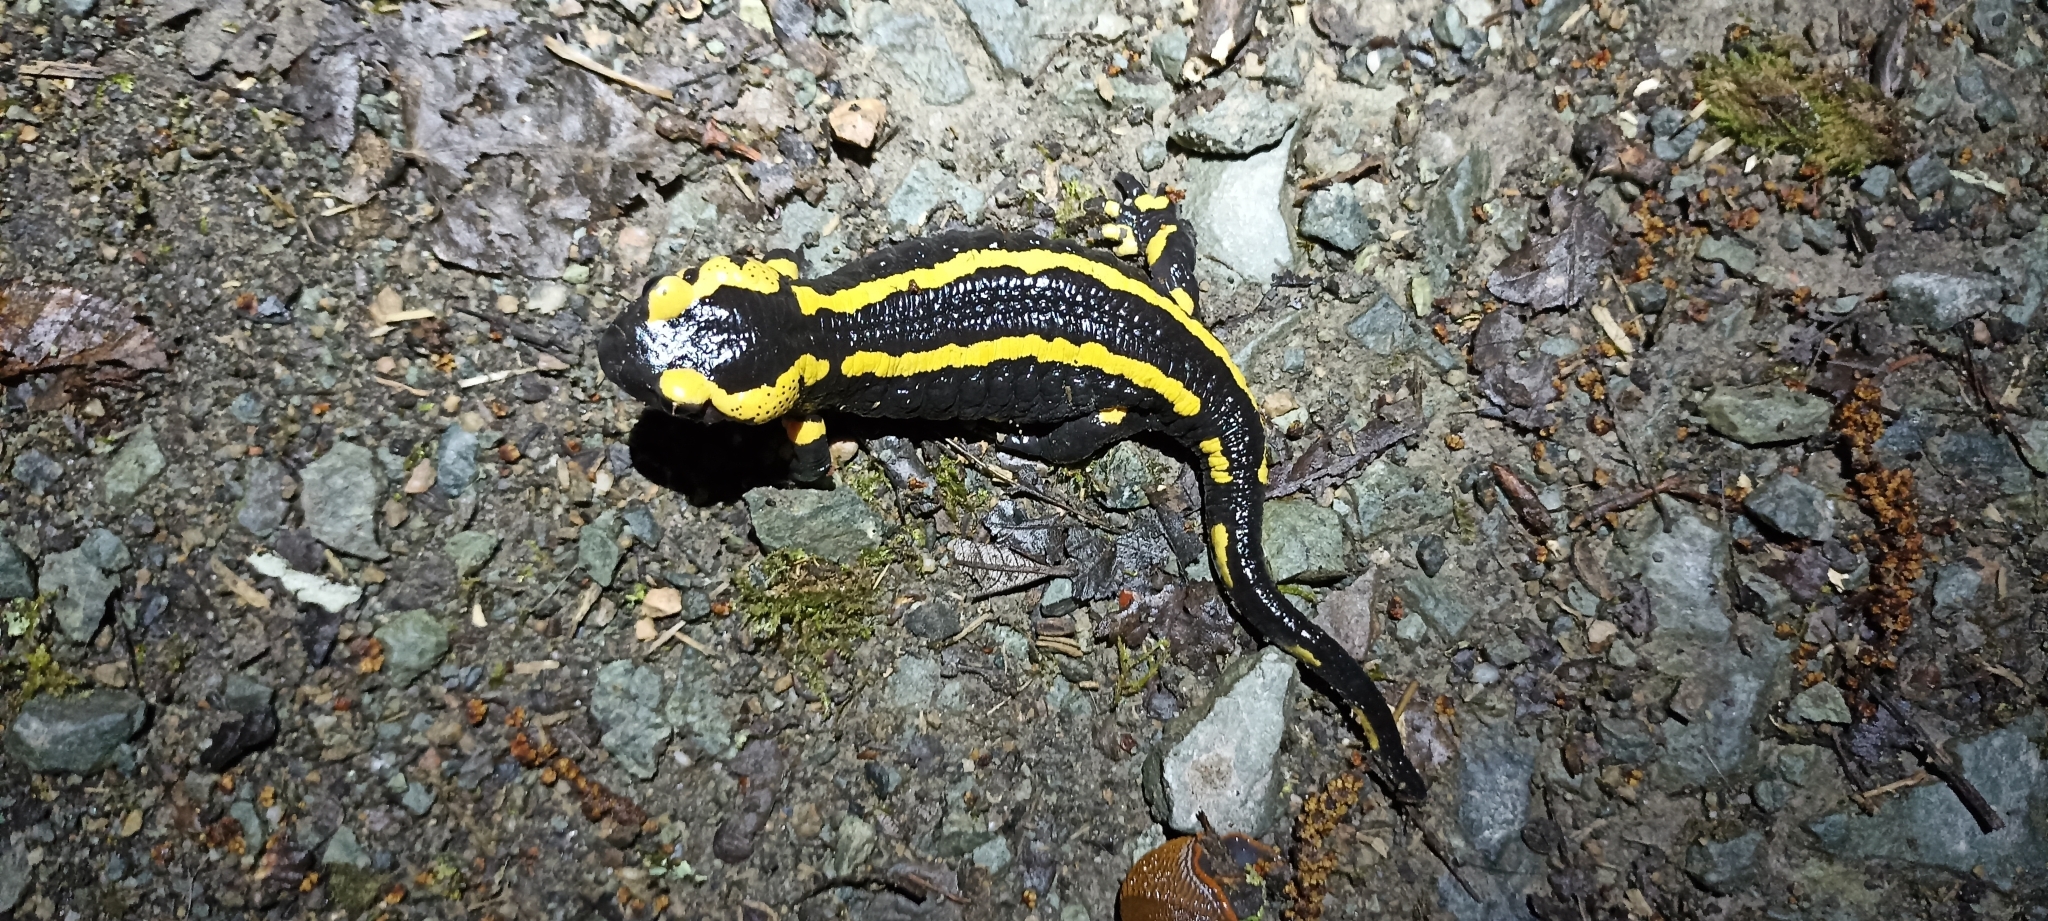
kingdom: Animalia
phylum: Chordata
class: Amphibia
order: Caudata
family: Salamandridae
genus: Salamandra
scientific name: Salamandra salamandra
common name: Fire salamander
